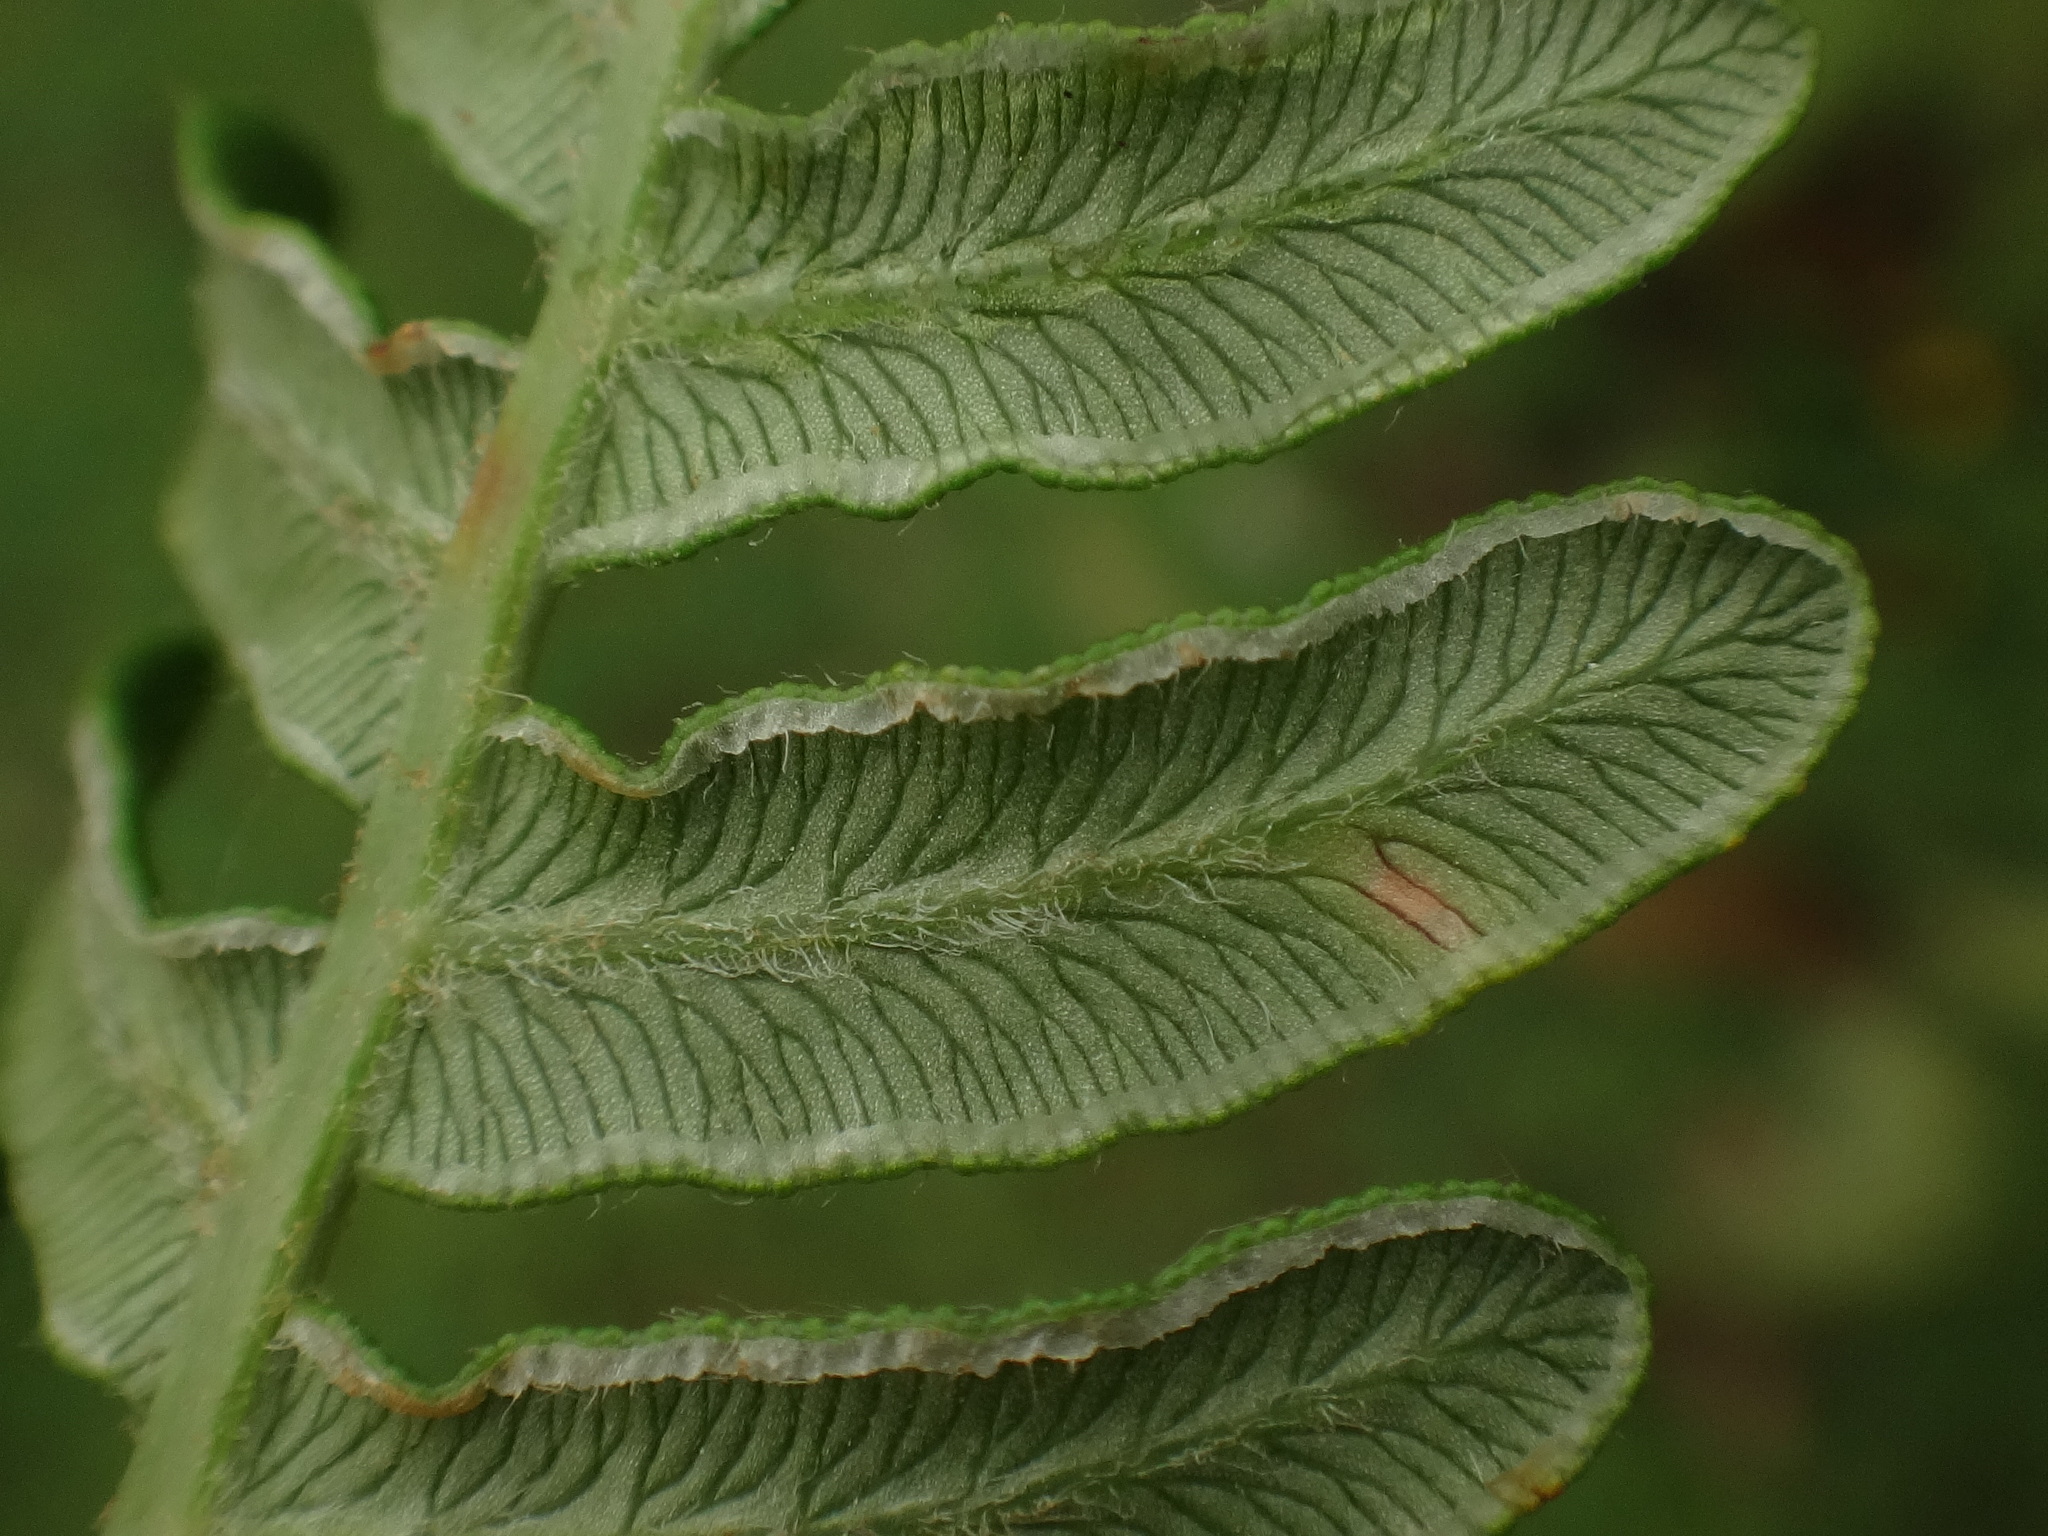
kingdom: Plantae
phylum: Tracheophyta
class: Polypodiopsida
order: Polypodiales
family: Dennstaedtiaceae
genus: Pteridium
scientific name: Pteridium aquilinum
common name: Bracken
